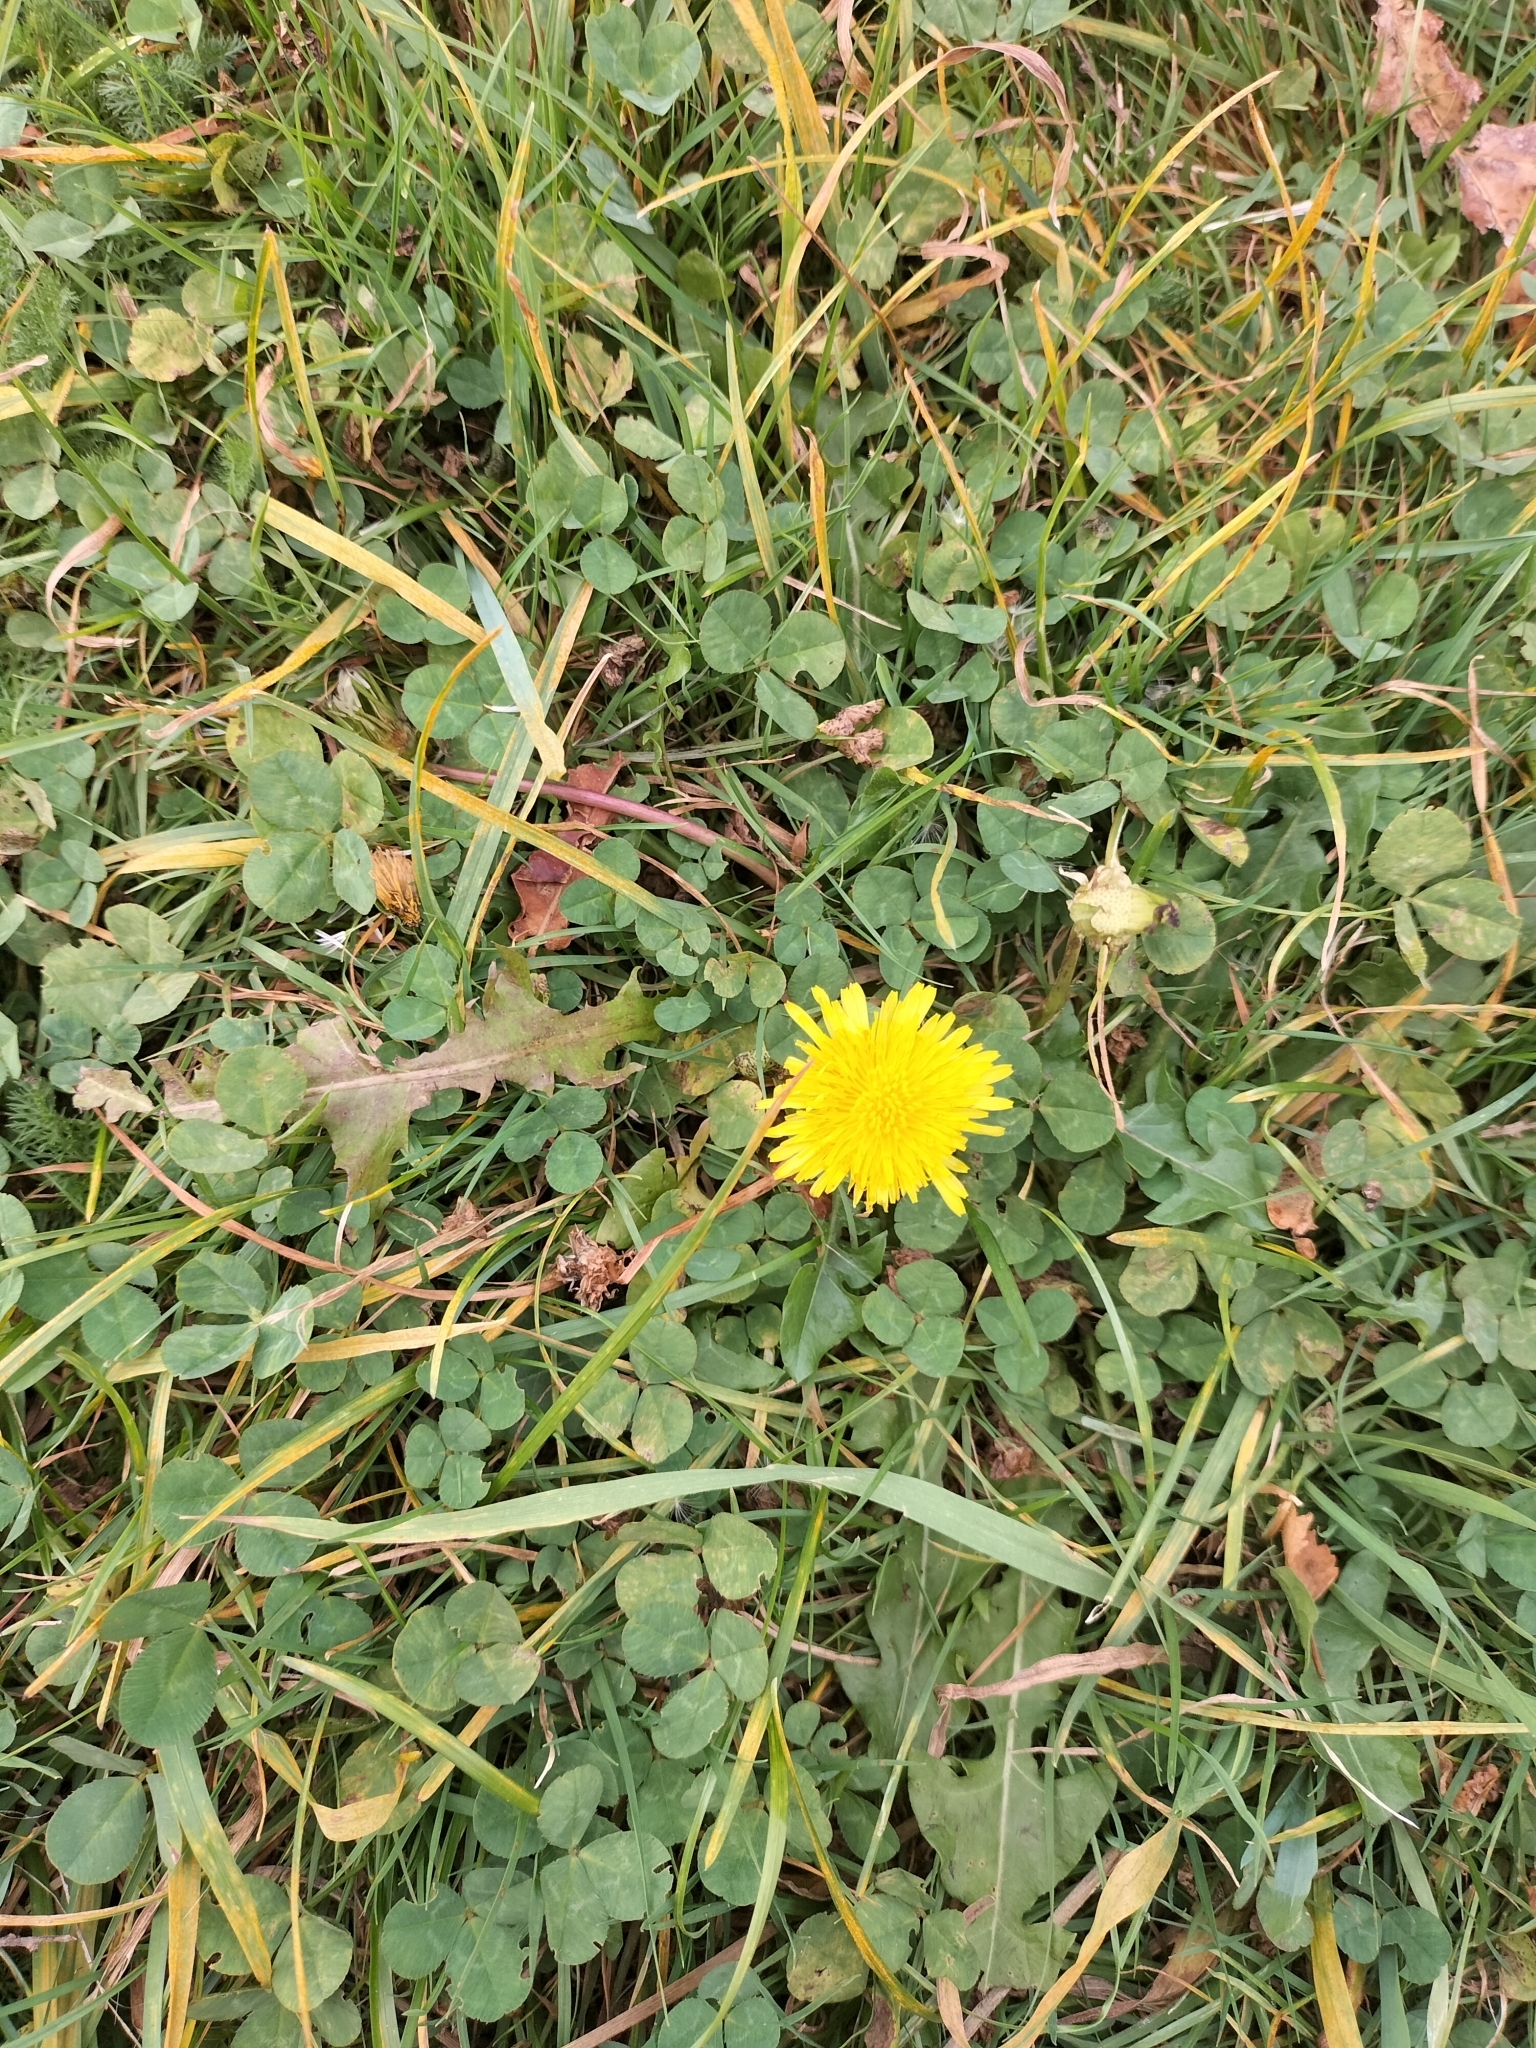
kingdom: Plantae
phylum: Tracheophyta
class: Magnoliopsida
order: Asterales
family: Asteraceae
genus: Taraxacum
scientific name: Taraxacum officinale
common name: Common dandelion
